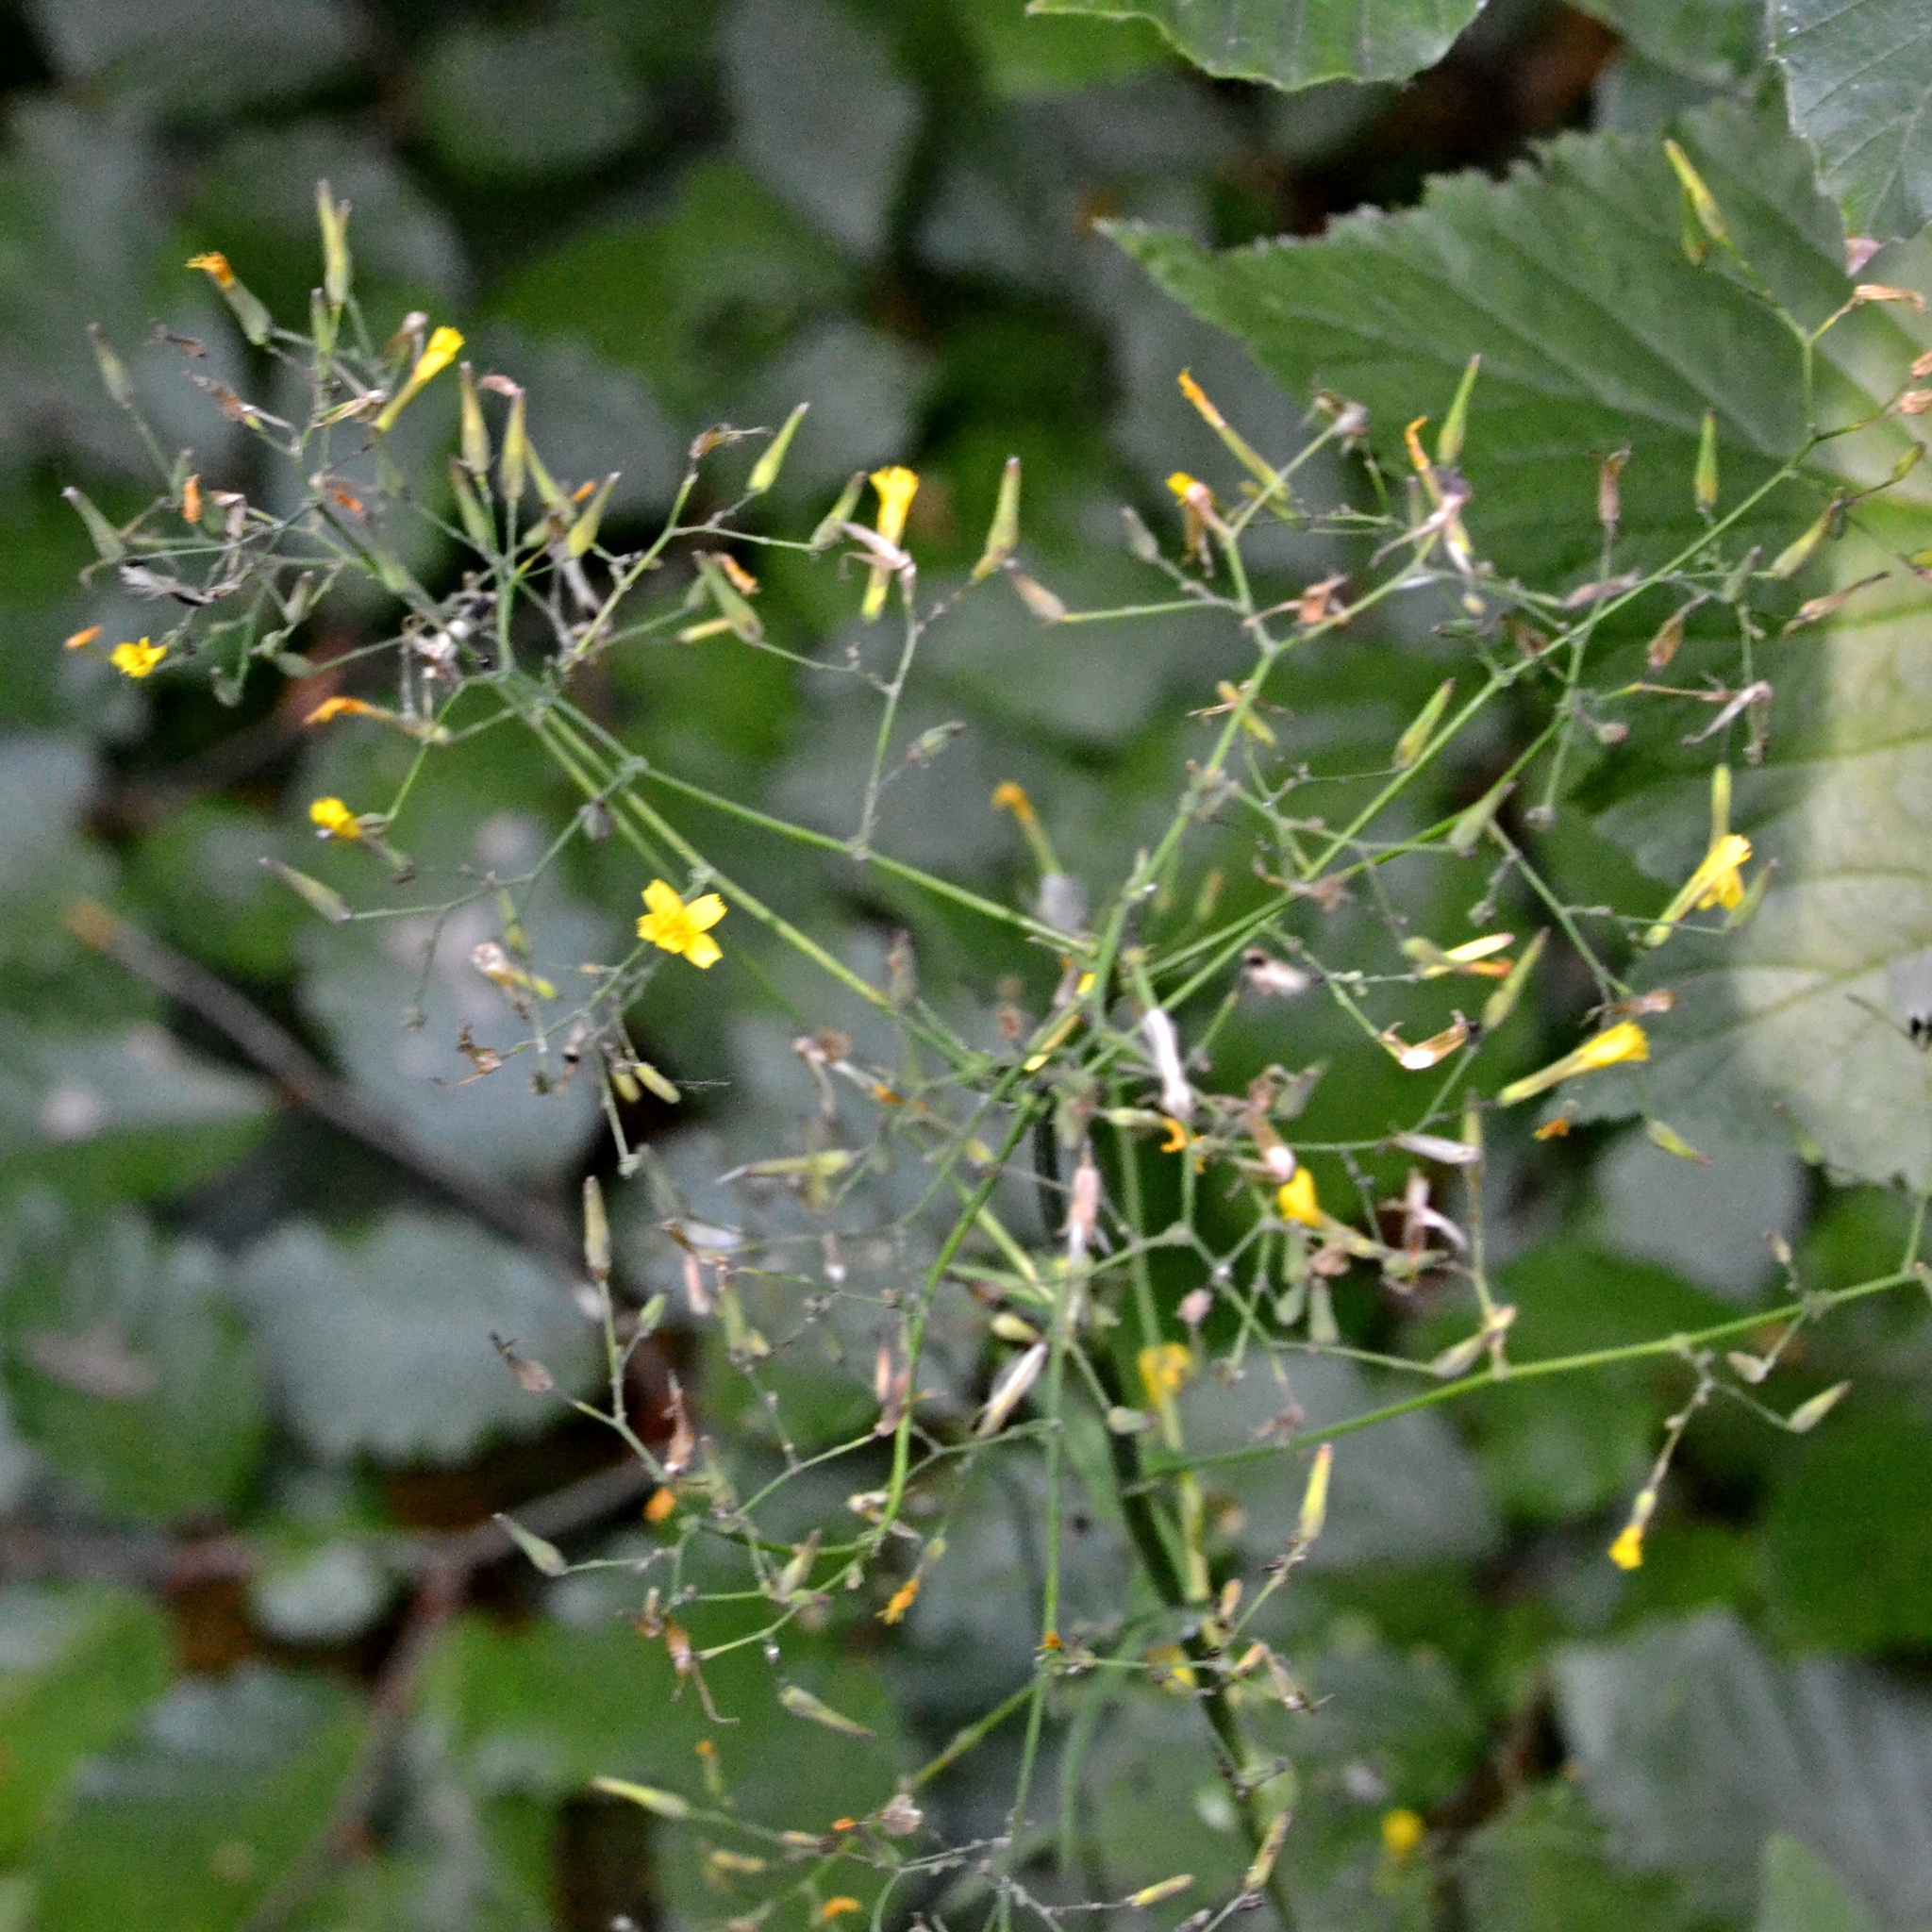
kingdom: Plantae
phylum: Tracheophyta
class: Magnoliopsida
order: Asterales
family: Asteraceae
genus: Mycelis
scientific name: Mycelis muralis
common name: Wall lettuce
